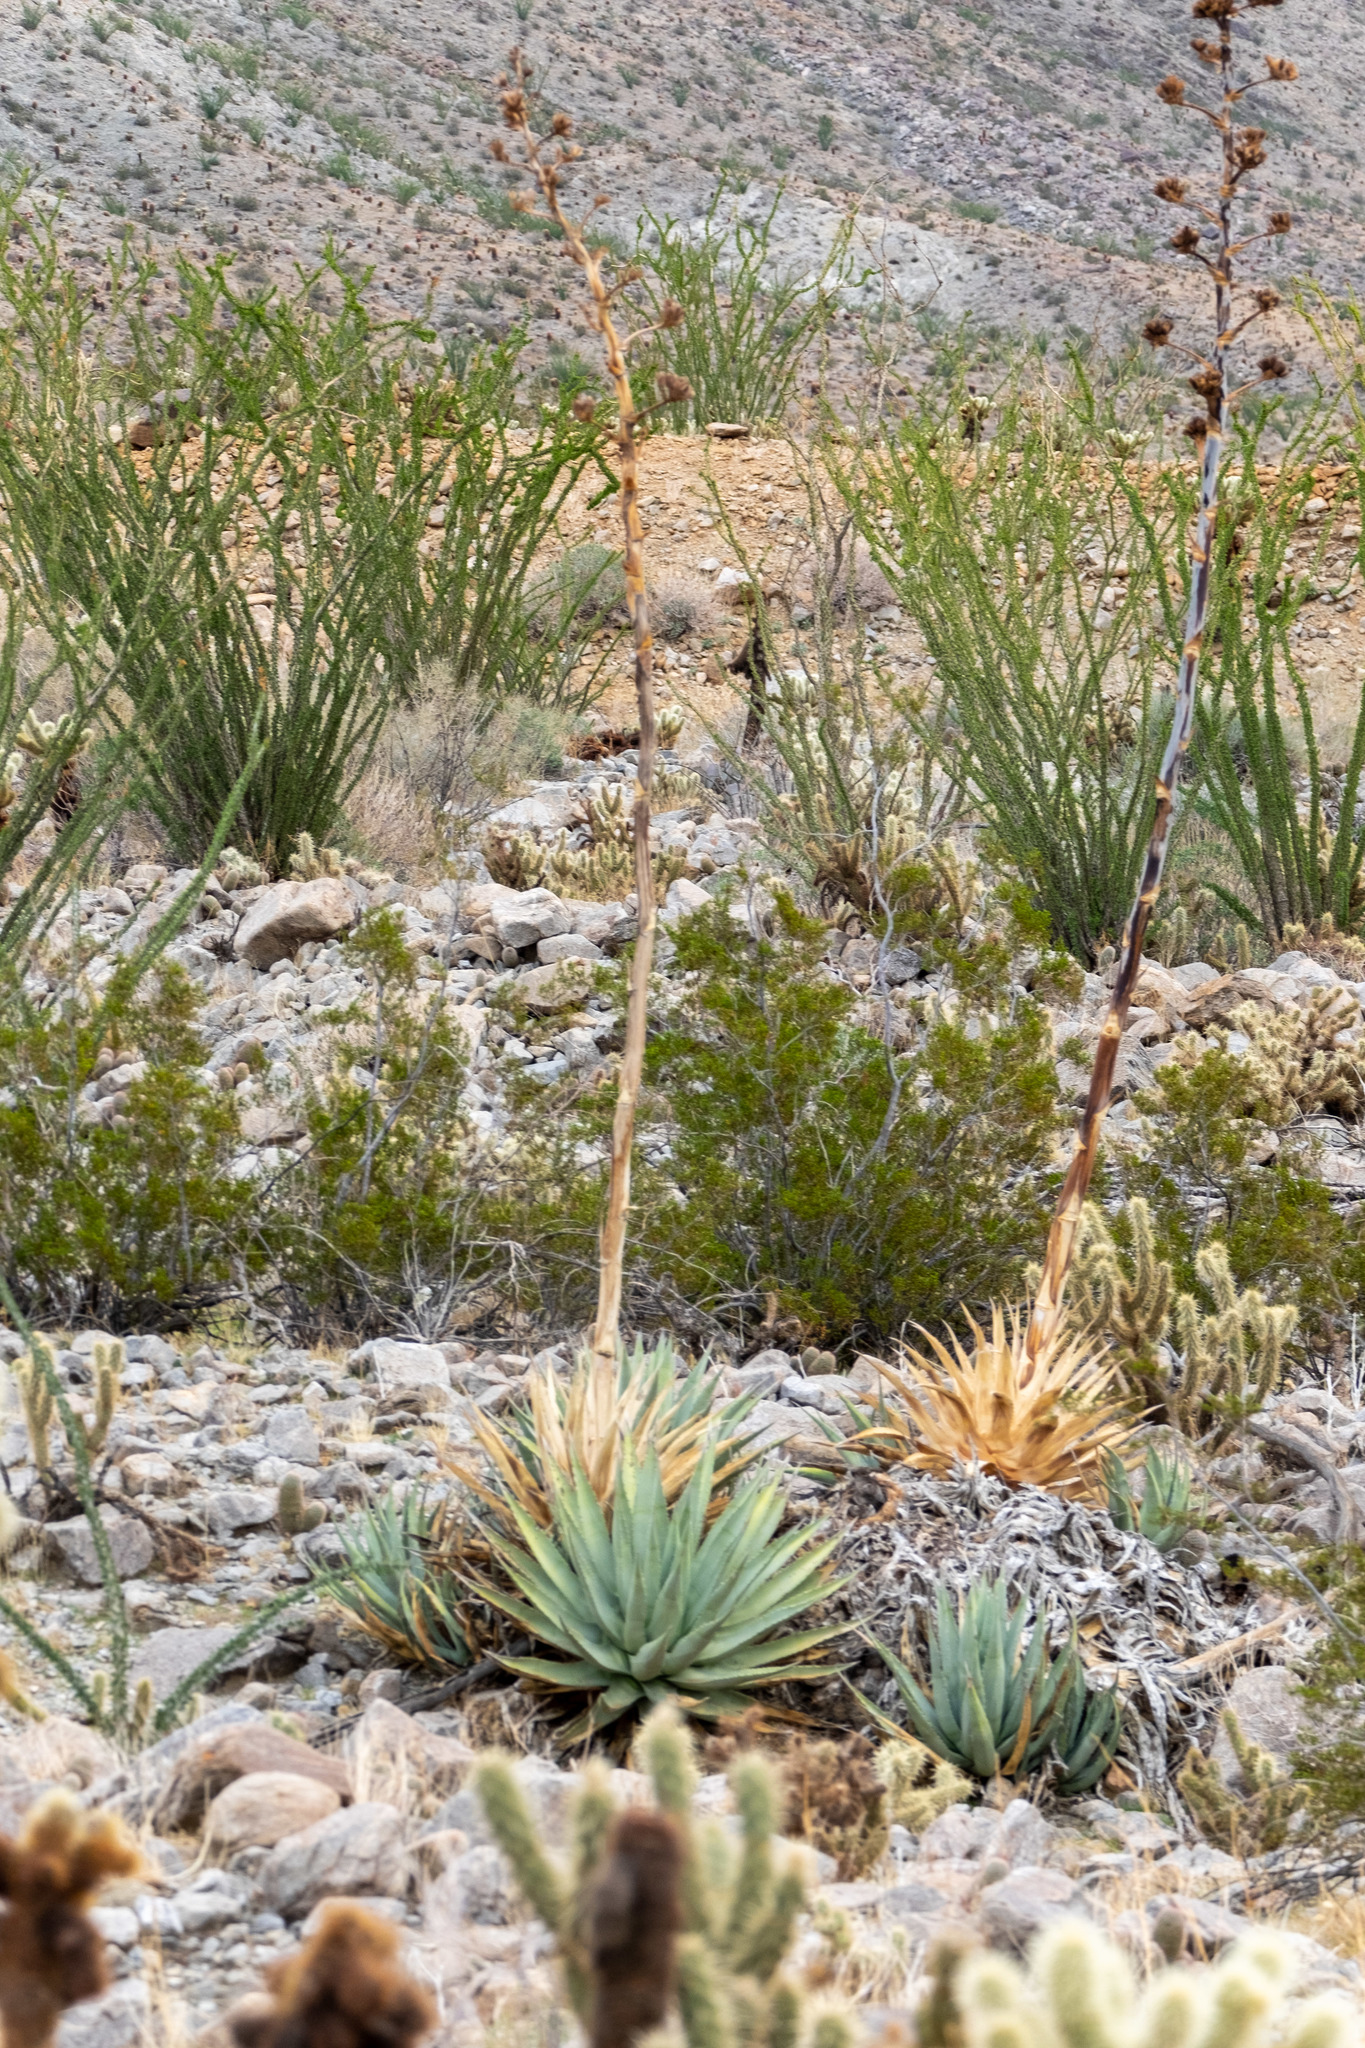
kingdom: Plantae
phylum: Tracheophyta
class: Liliopsida
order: Asparagales
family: Asparagaceae
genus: Agave
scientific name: Agave deserti
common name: Desert agave
